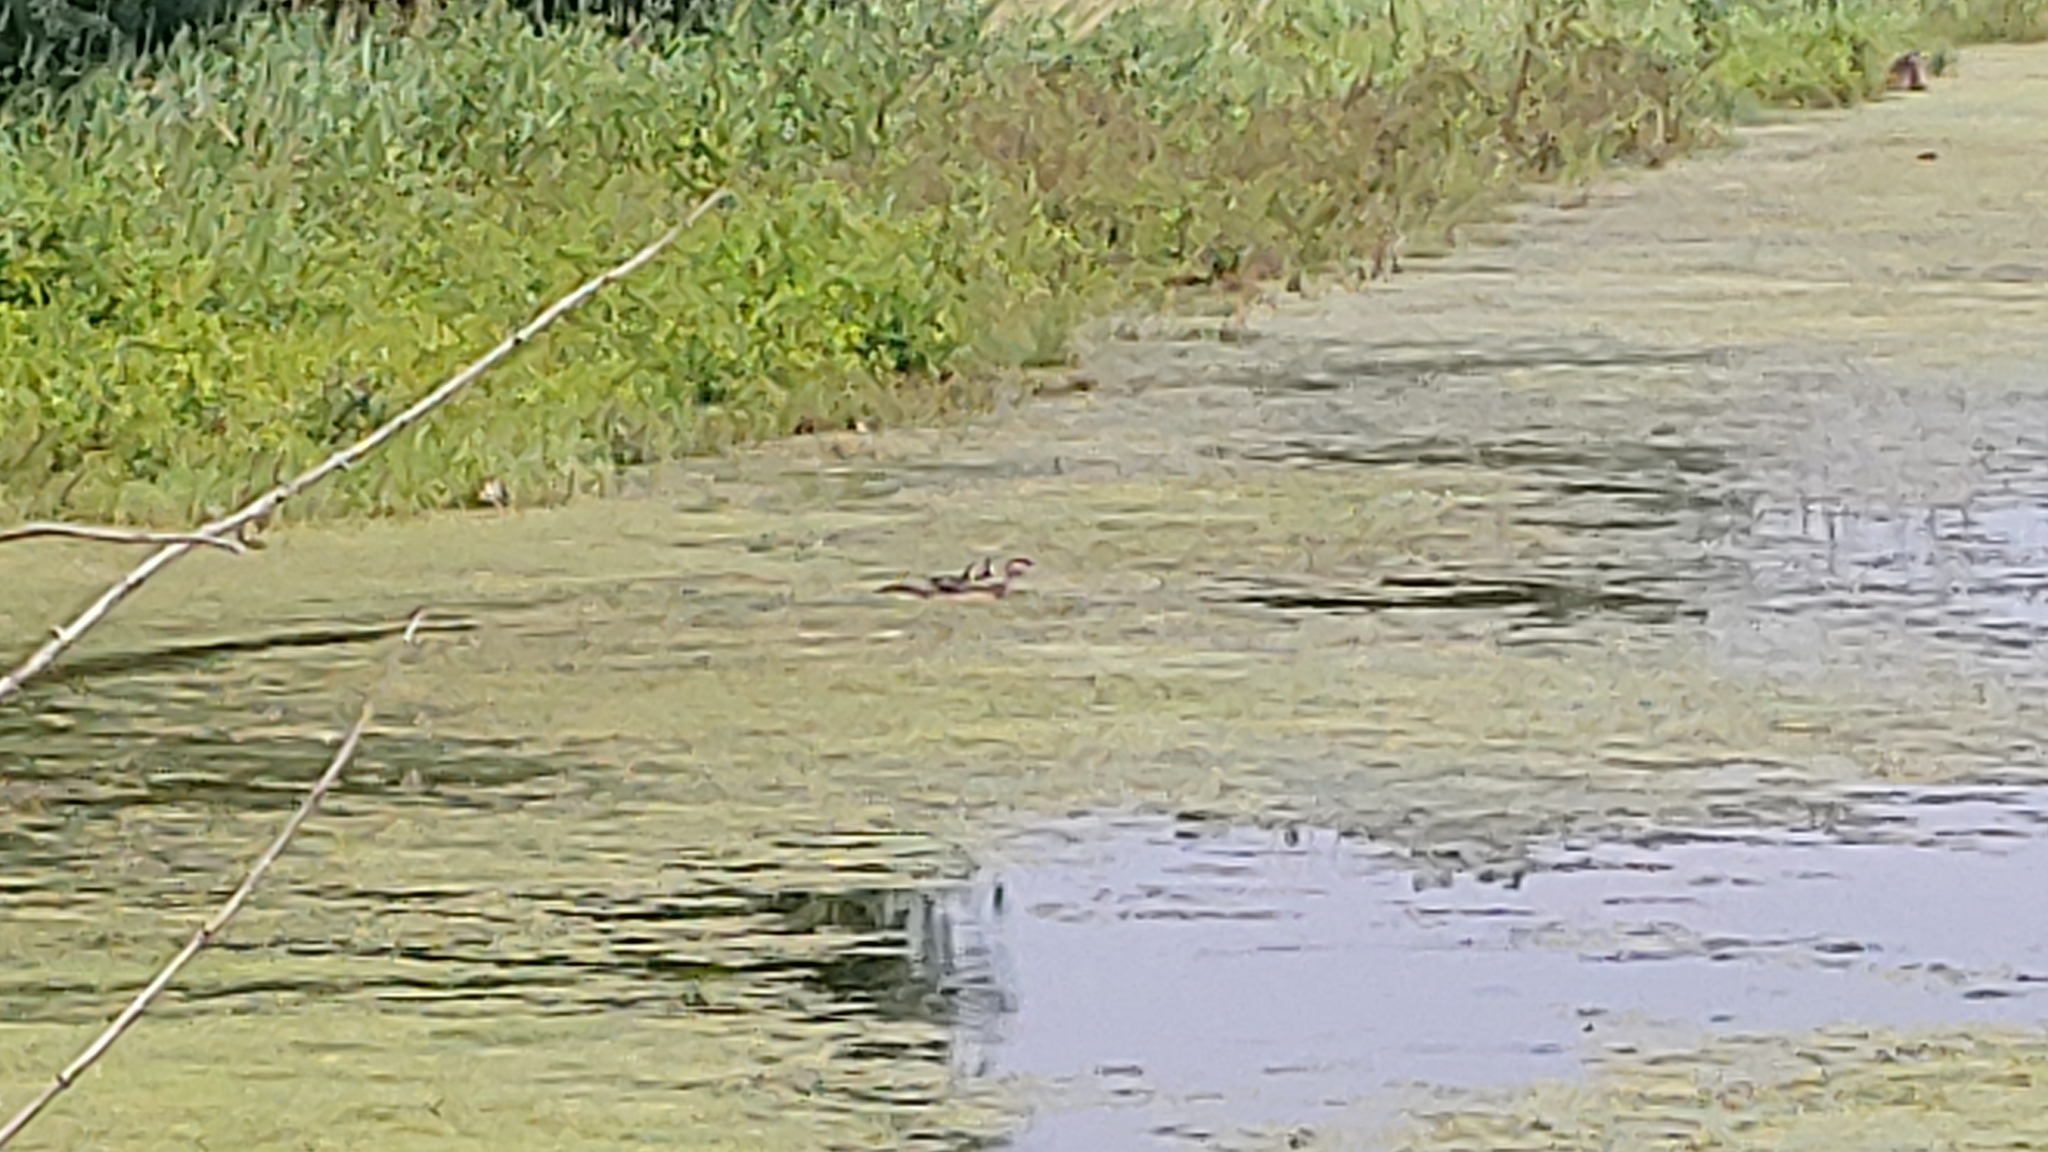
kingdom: Animalia
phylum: Chordata
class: Aves
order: Anseriformes
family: Anatidae
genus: Aix
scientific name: Aix sponsa
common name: Wood duck
